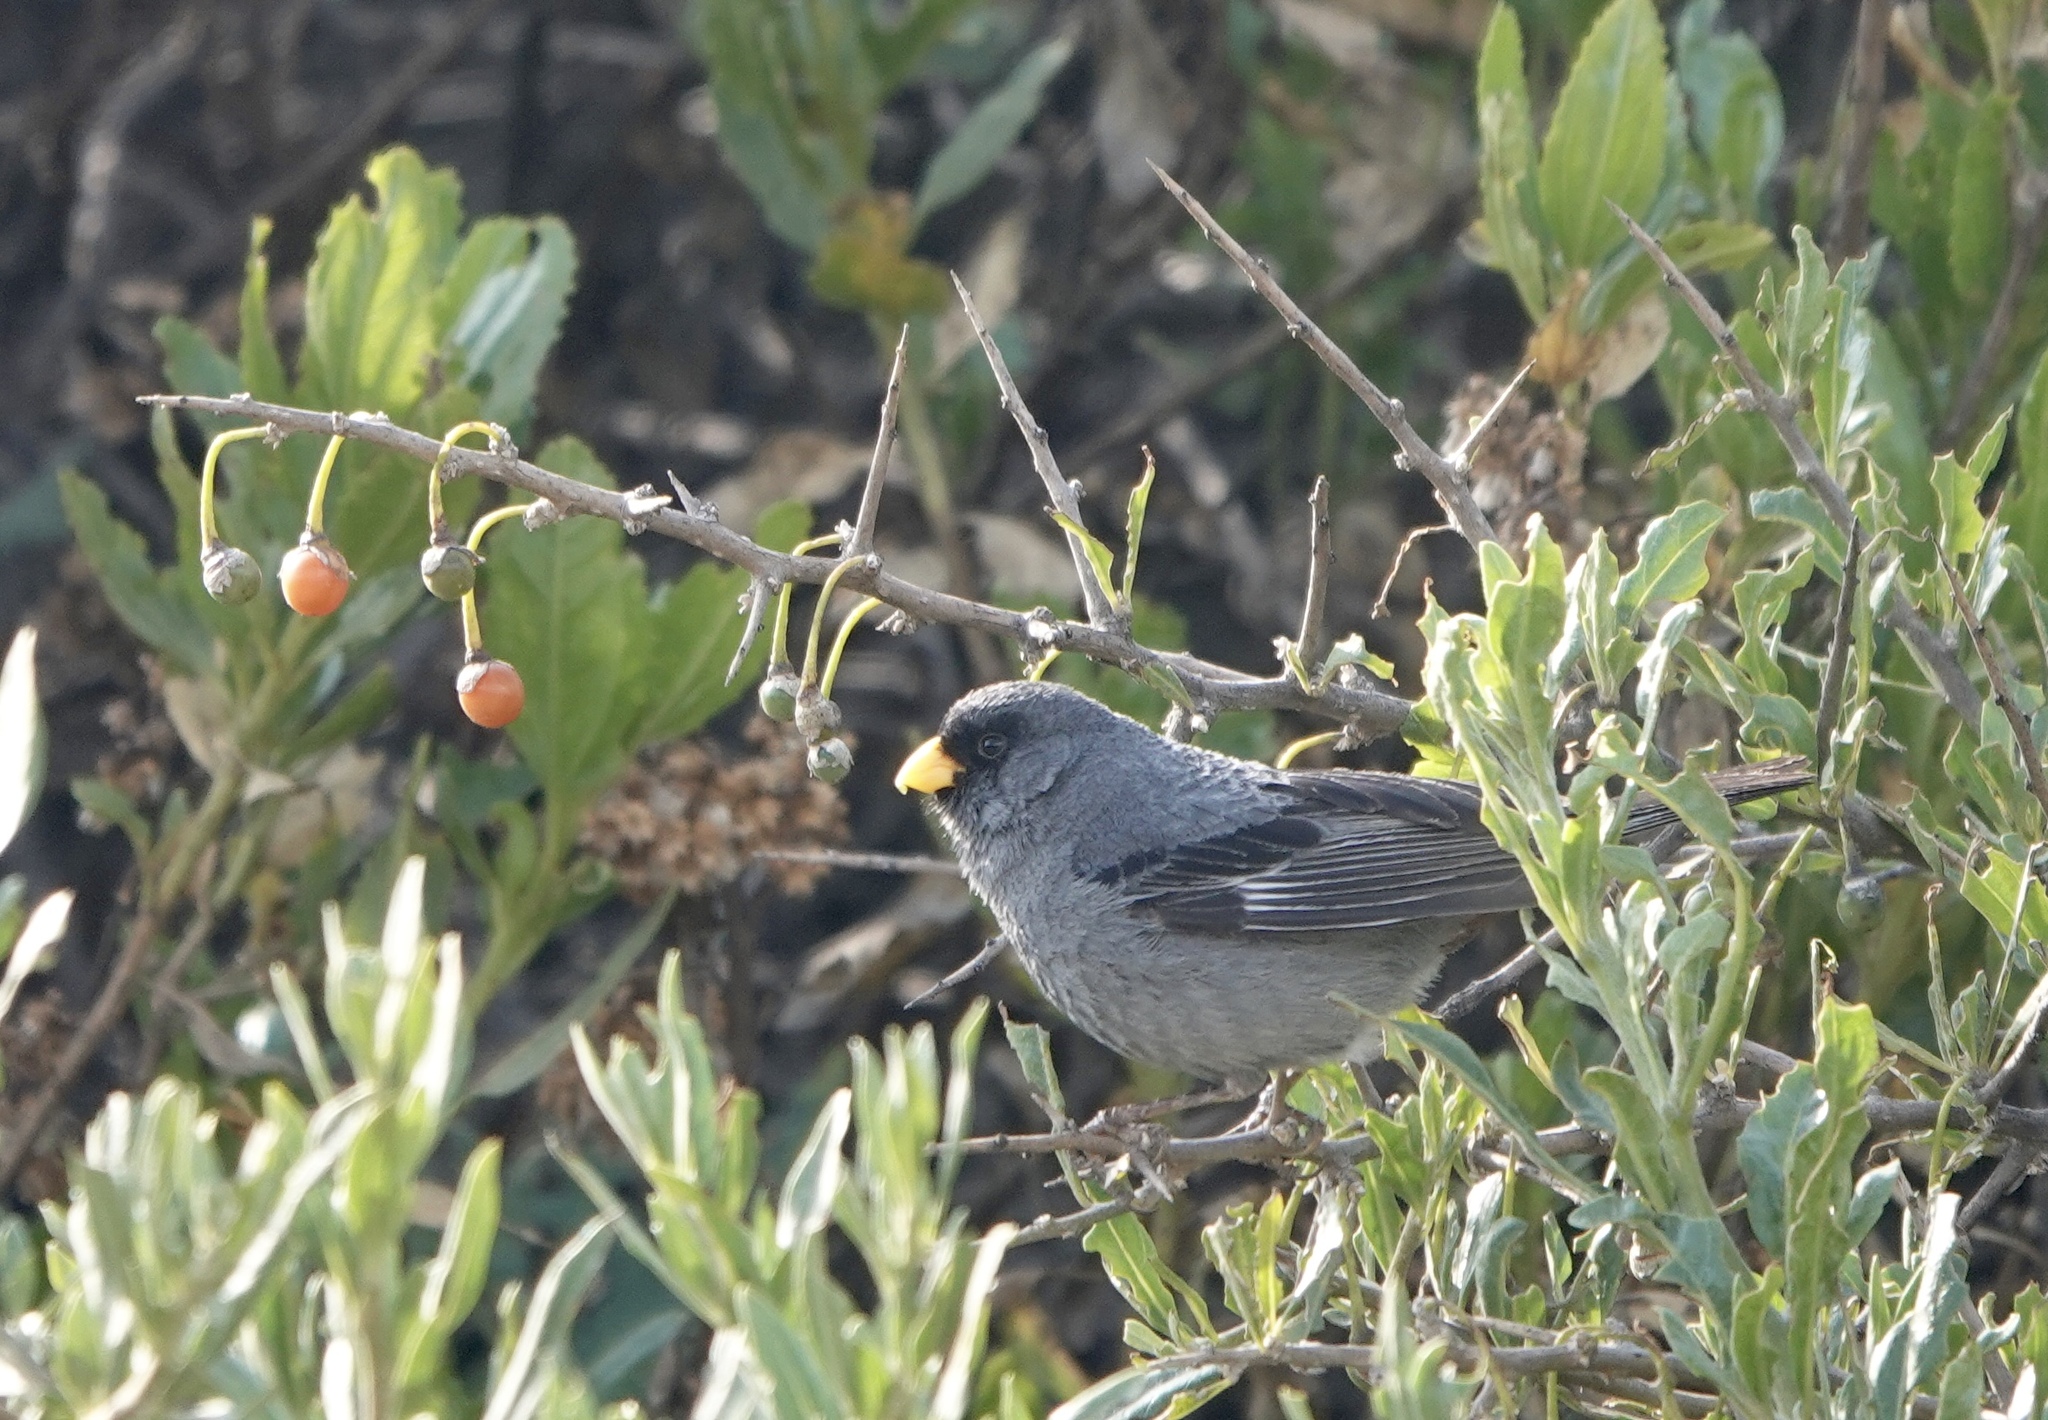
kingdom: Animalia
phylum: Chordata
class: Aves
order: Passeriformes
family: Thraupidae
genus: Catamenia
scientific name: Catamenia analis
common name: Band-tailed seedeater
